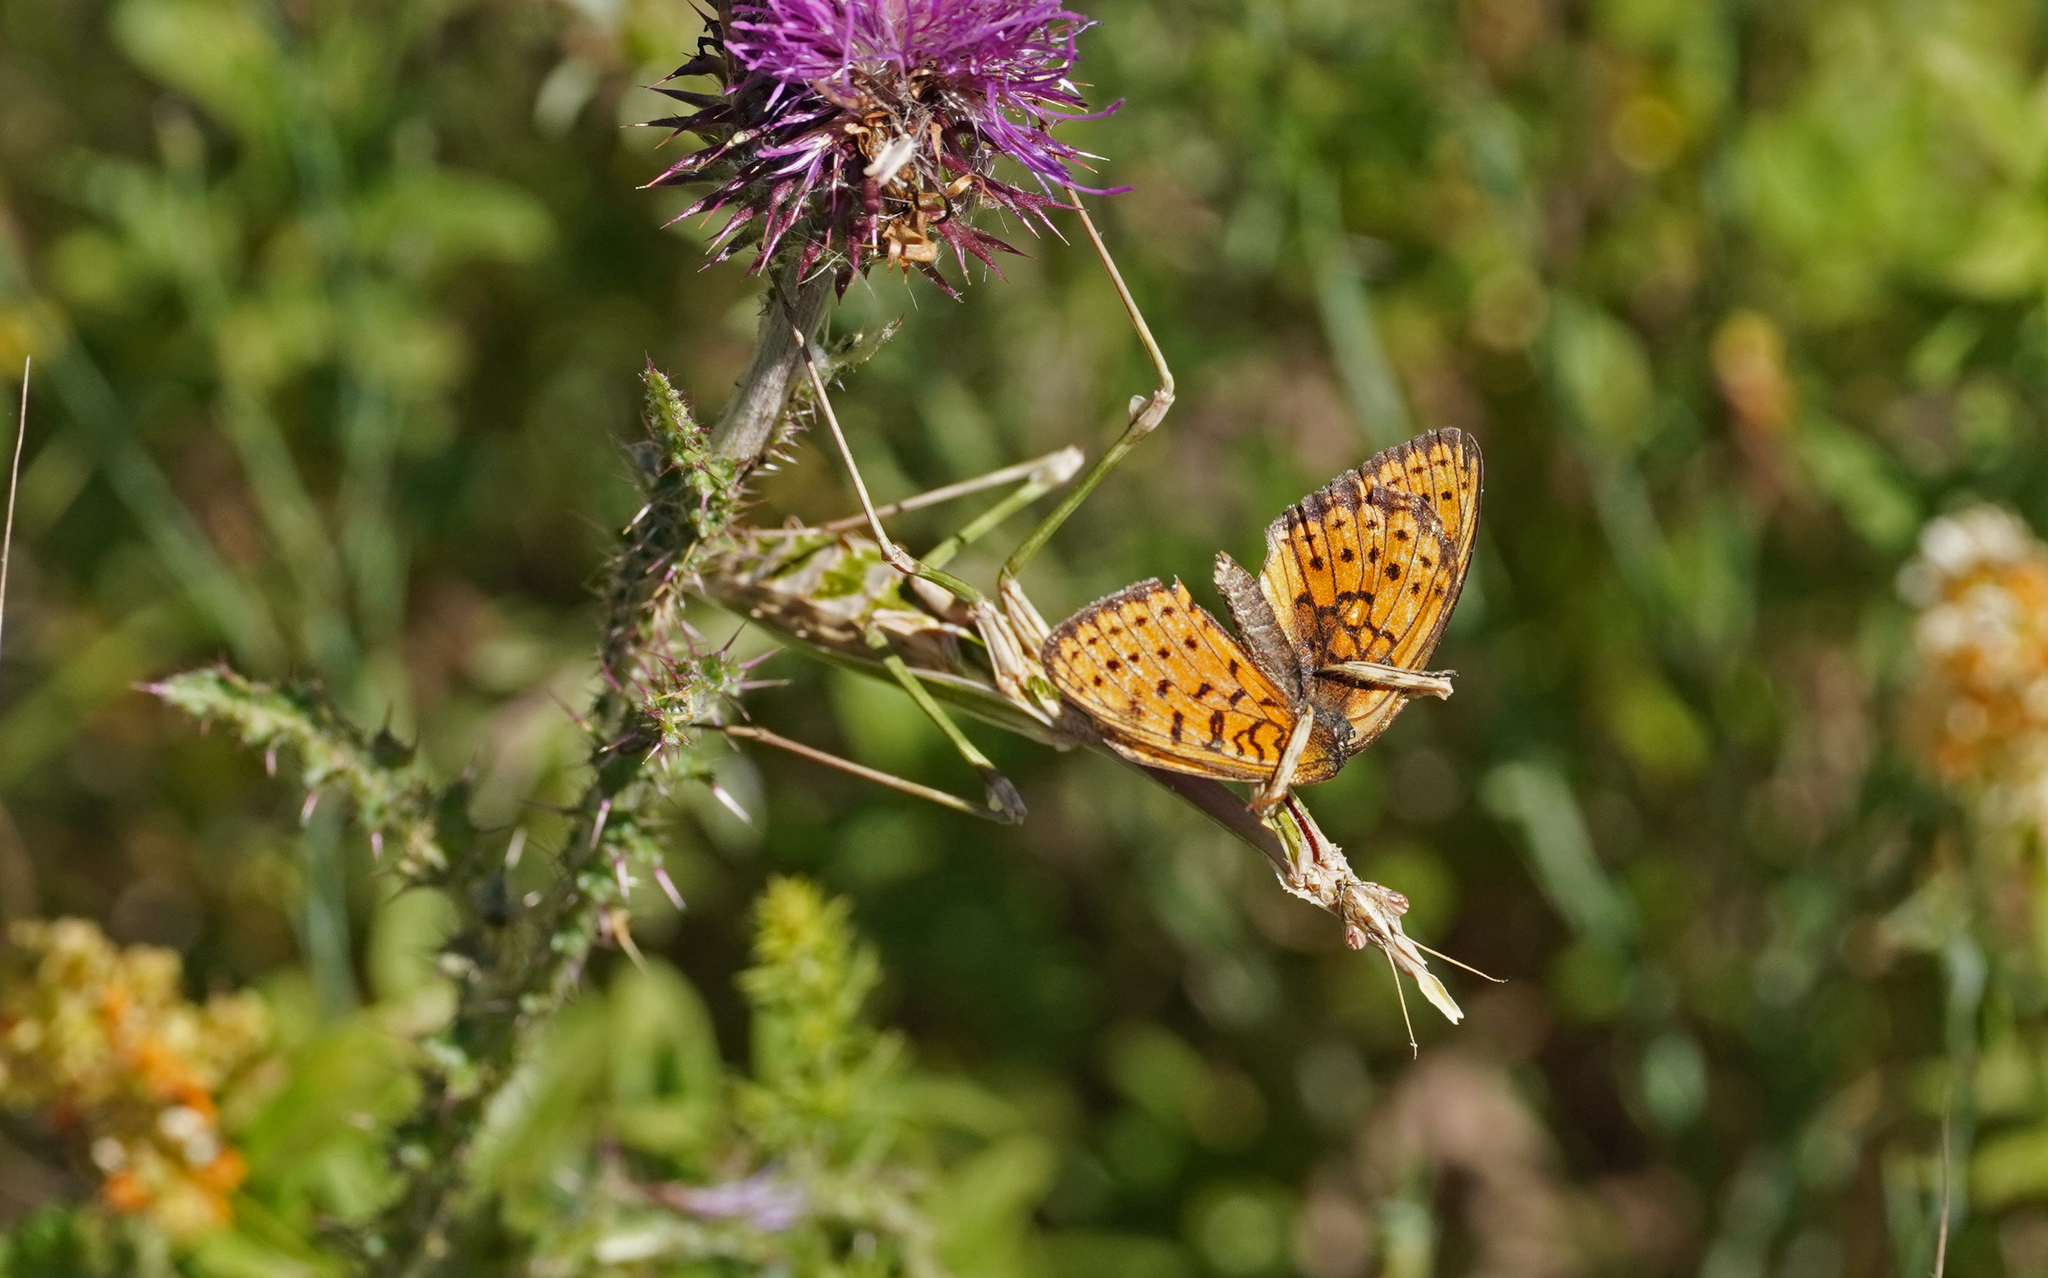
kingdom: Animalia
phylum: Arthropoda
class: Insecta
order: Lepidoptera
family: Nymphalidae
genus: Brenthis
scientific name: Brenthis hecate
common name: Twin-spot fritillary
